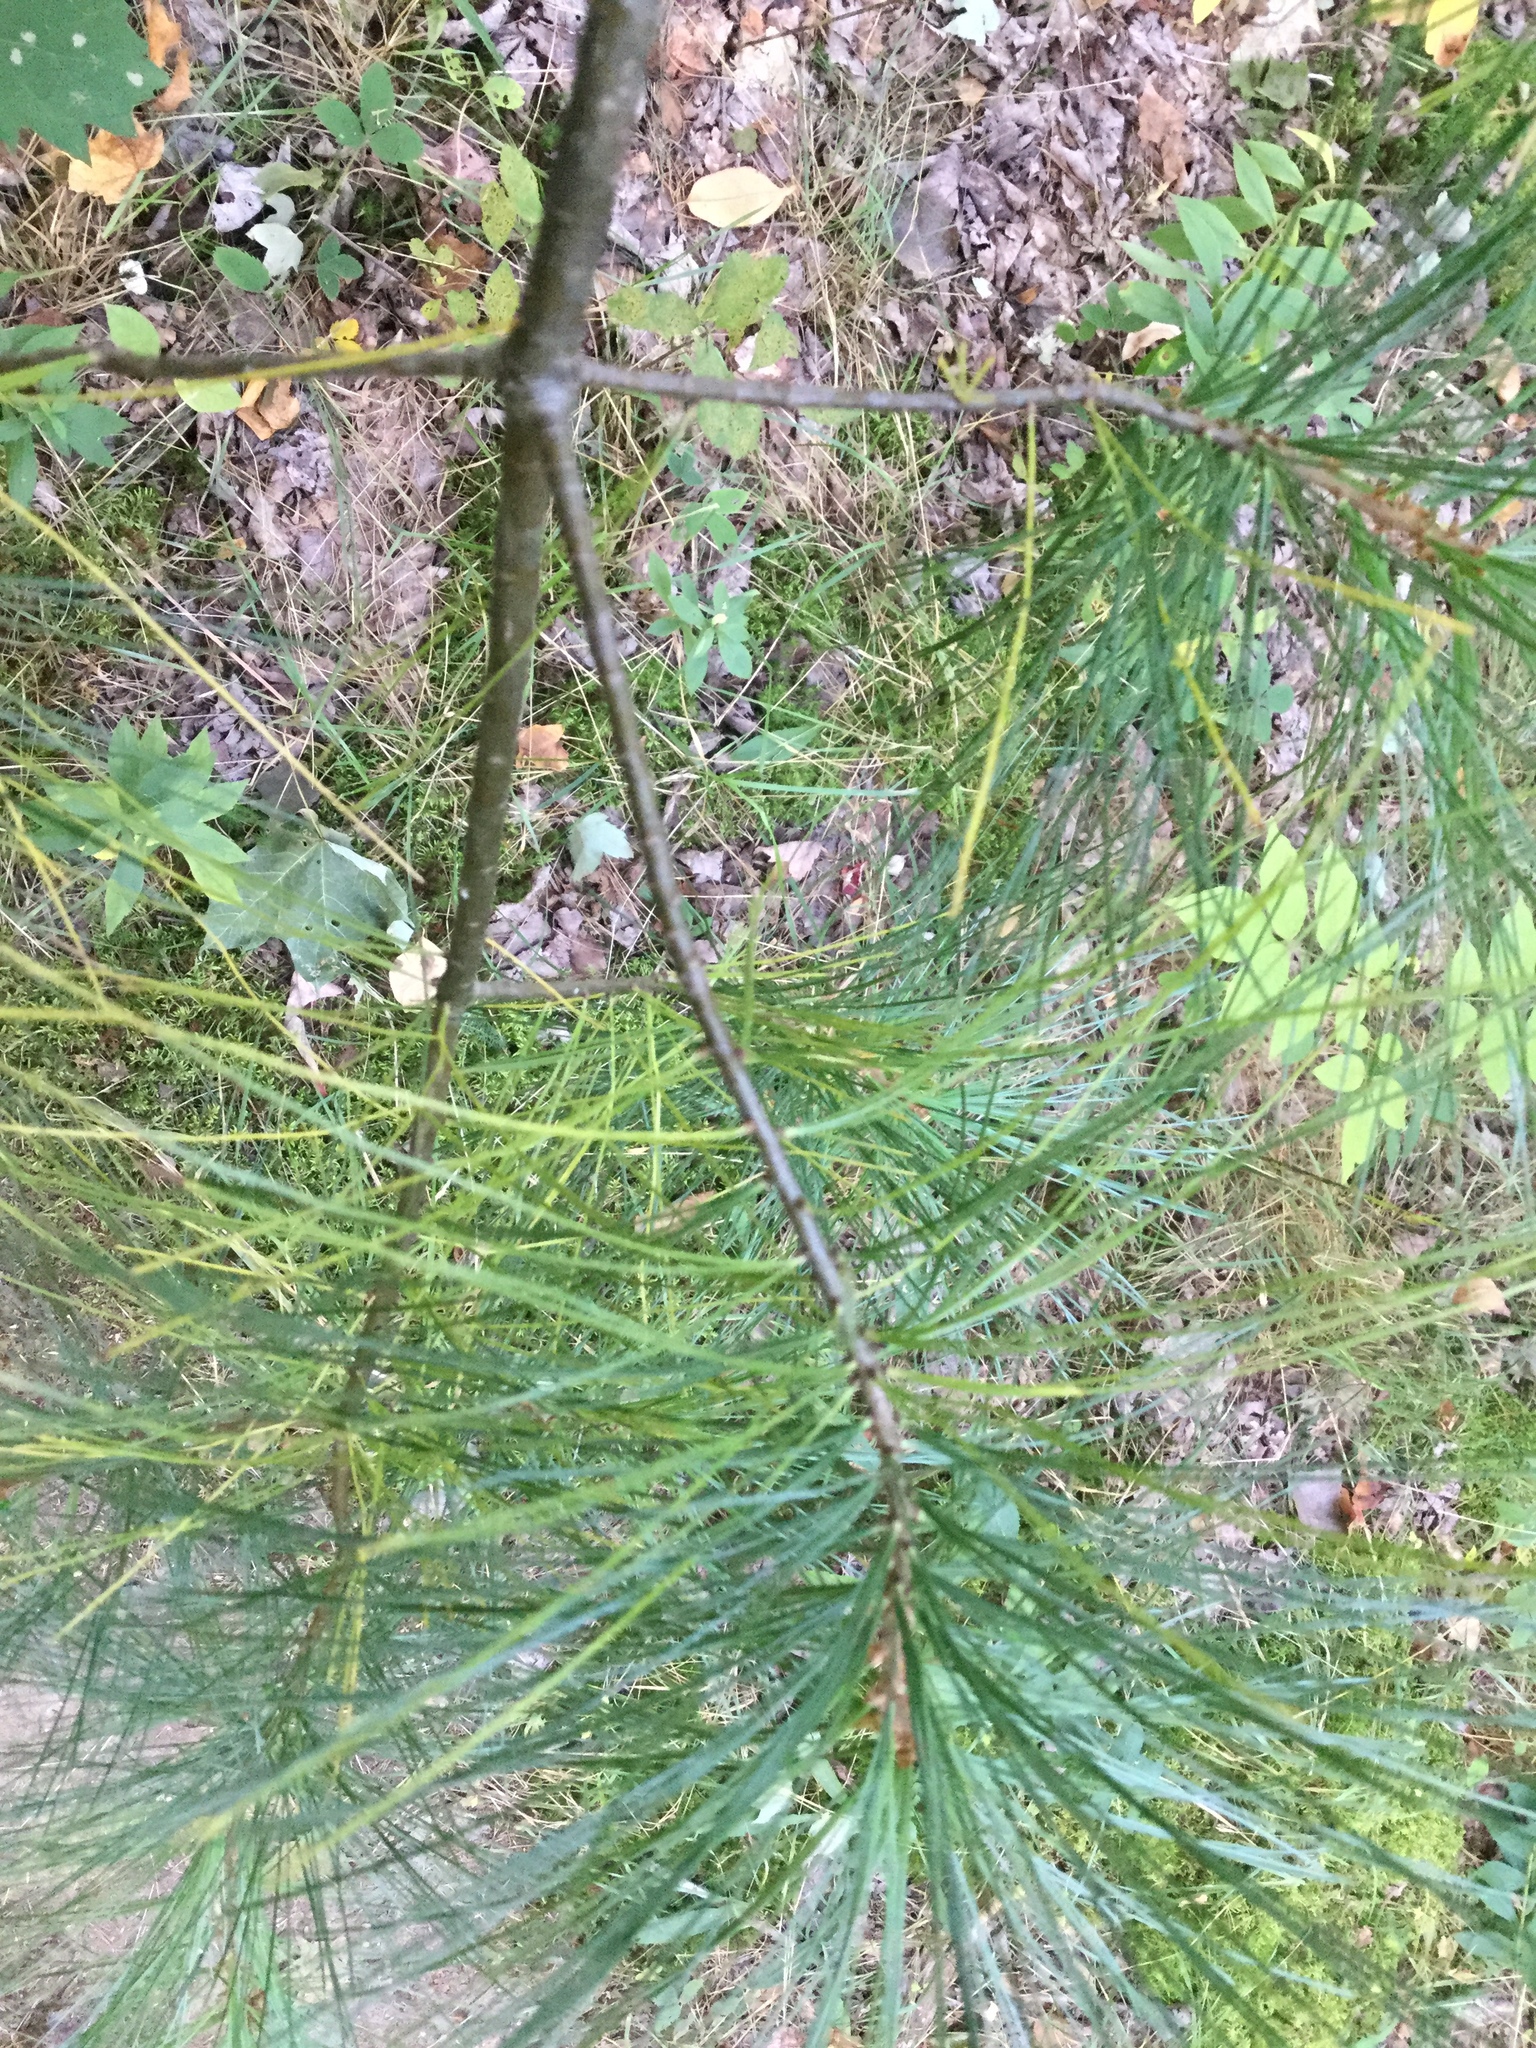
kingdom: Plantae
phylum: Tracheophyta
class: Pinopsida
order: Pinales
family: Pinaceae
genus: Pinus
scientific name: Pinus strobus
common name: Weymouth pine
